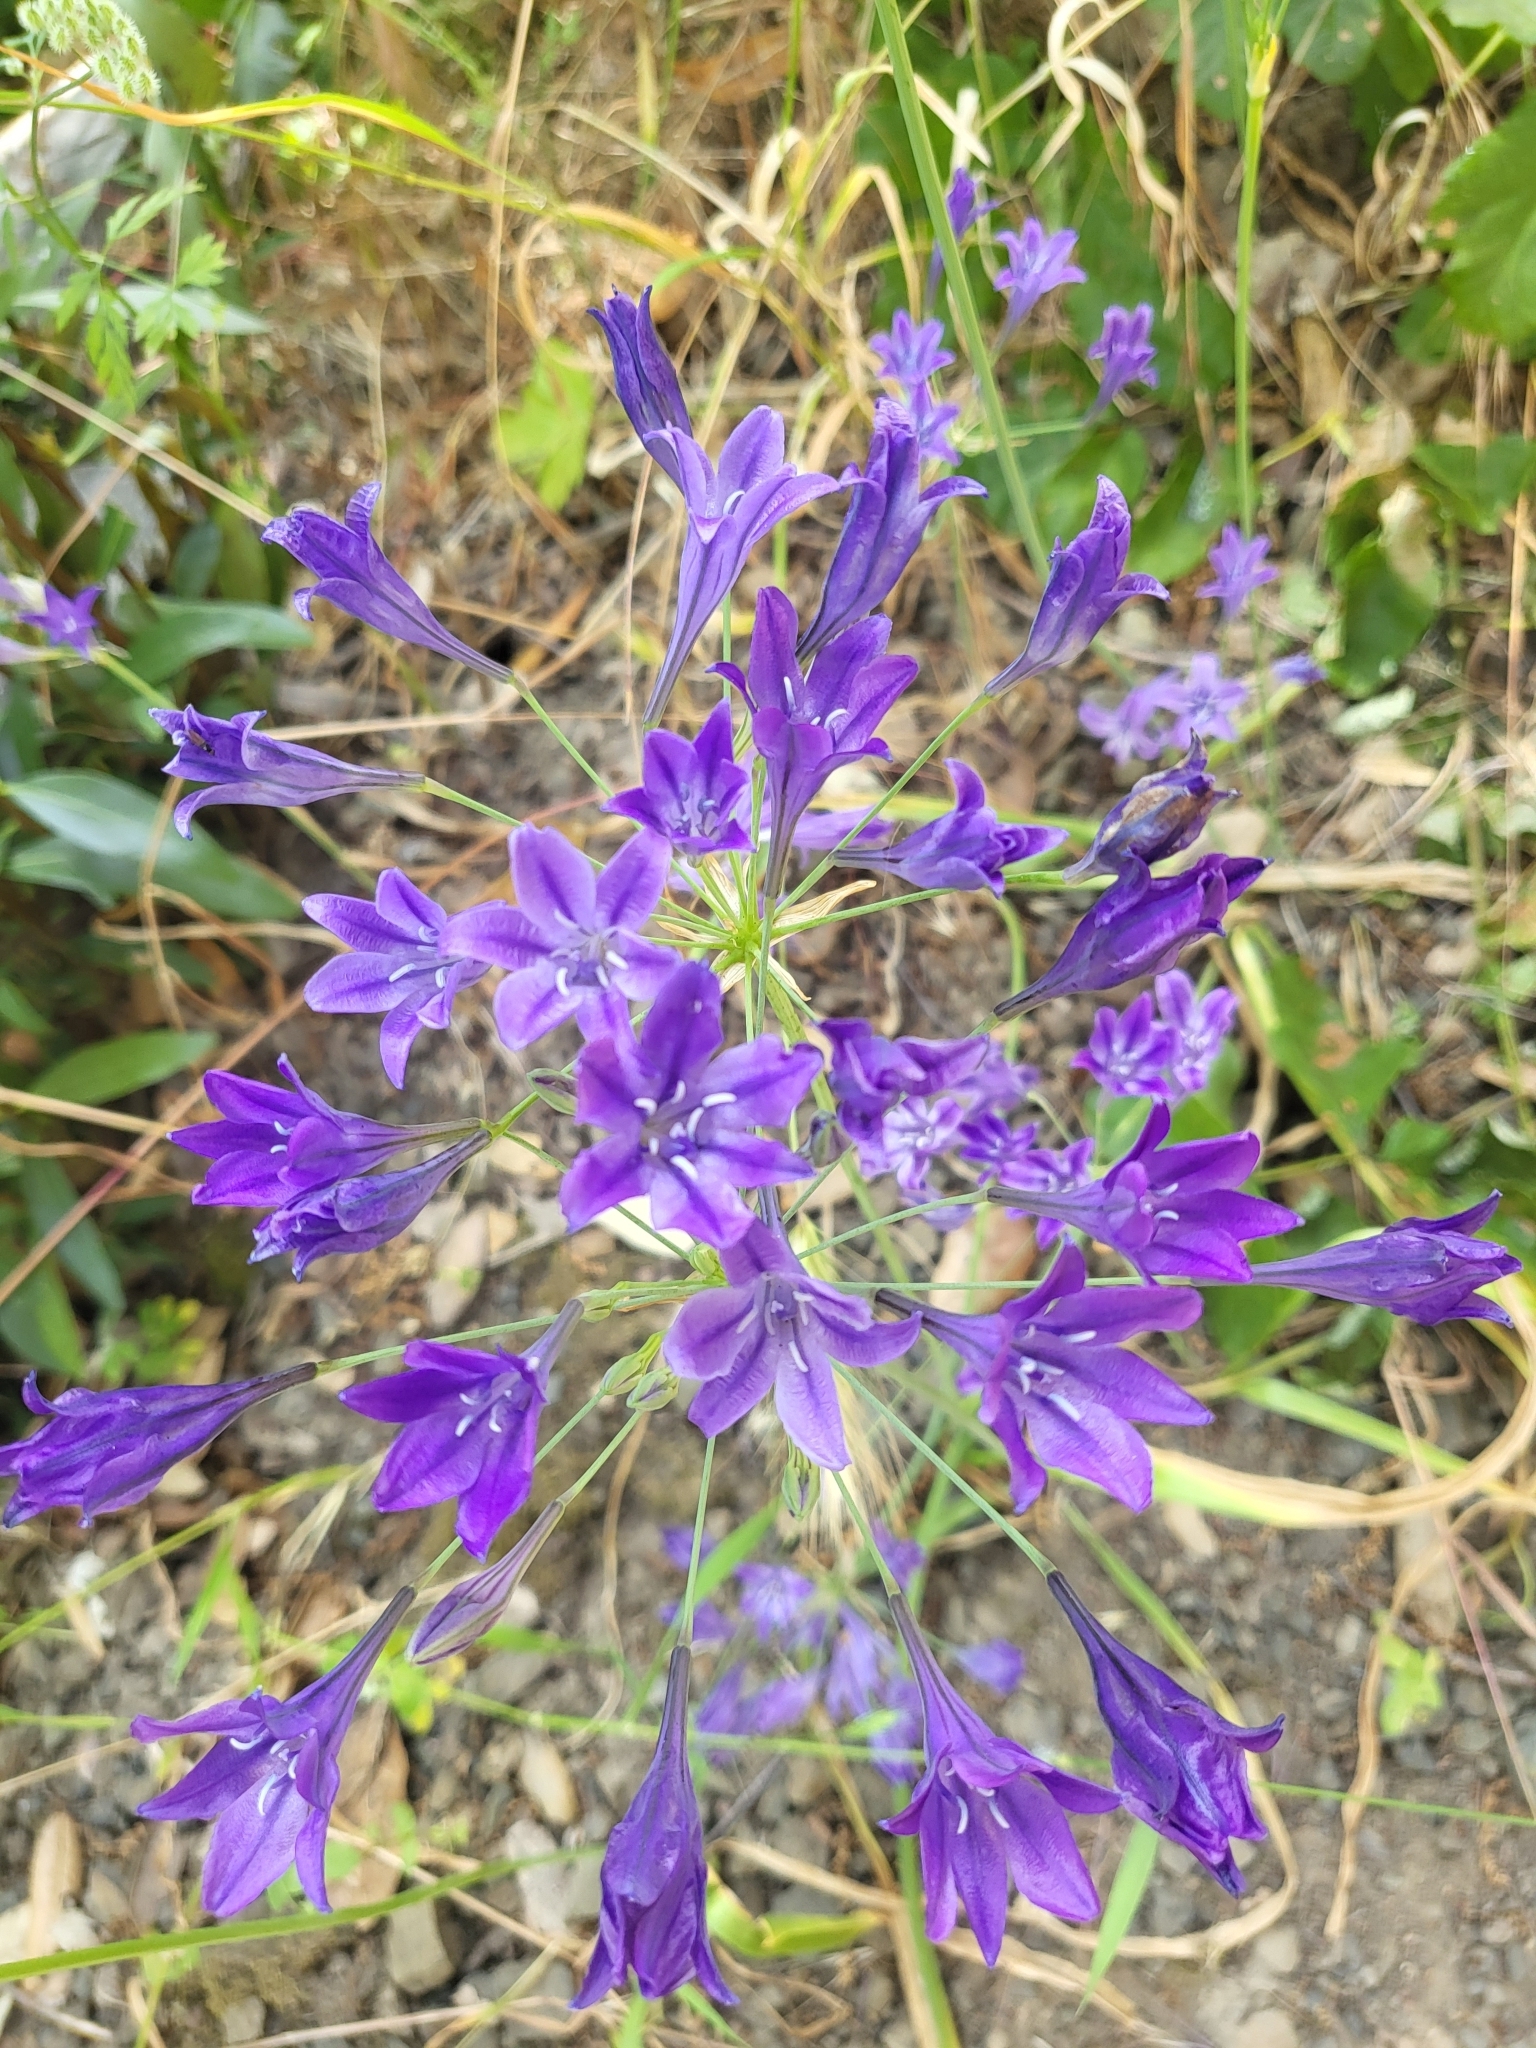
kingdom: Plantae
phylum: Tracheophyta
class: Liliopsida
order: Asparagales
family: Asparagaceae
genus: Triteleia
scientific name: Triteleia laxa
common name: Triplet-lily
